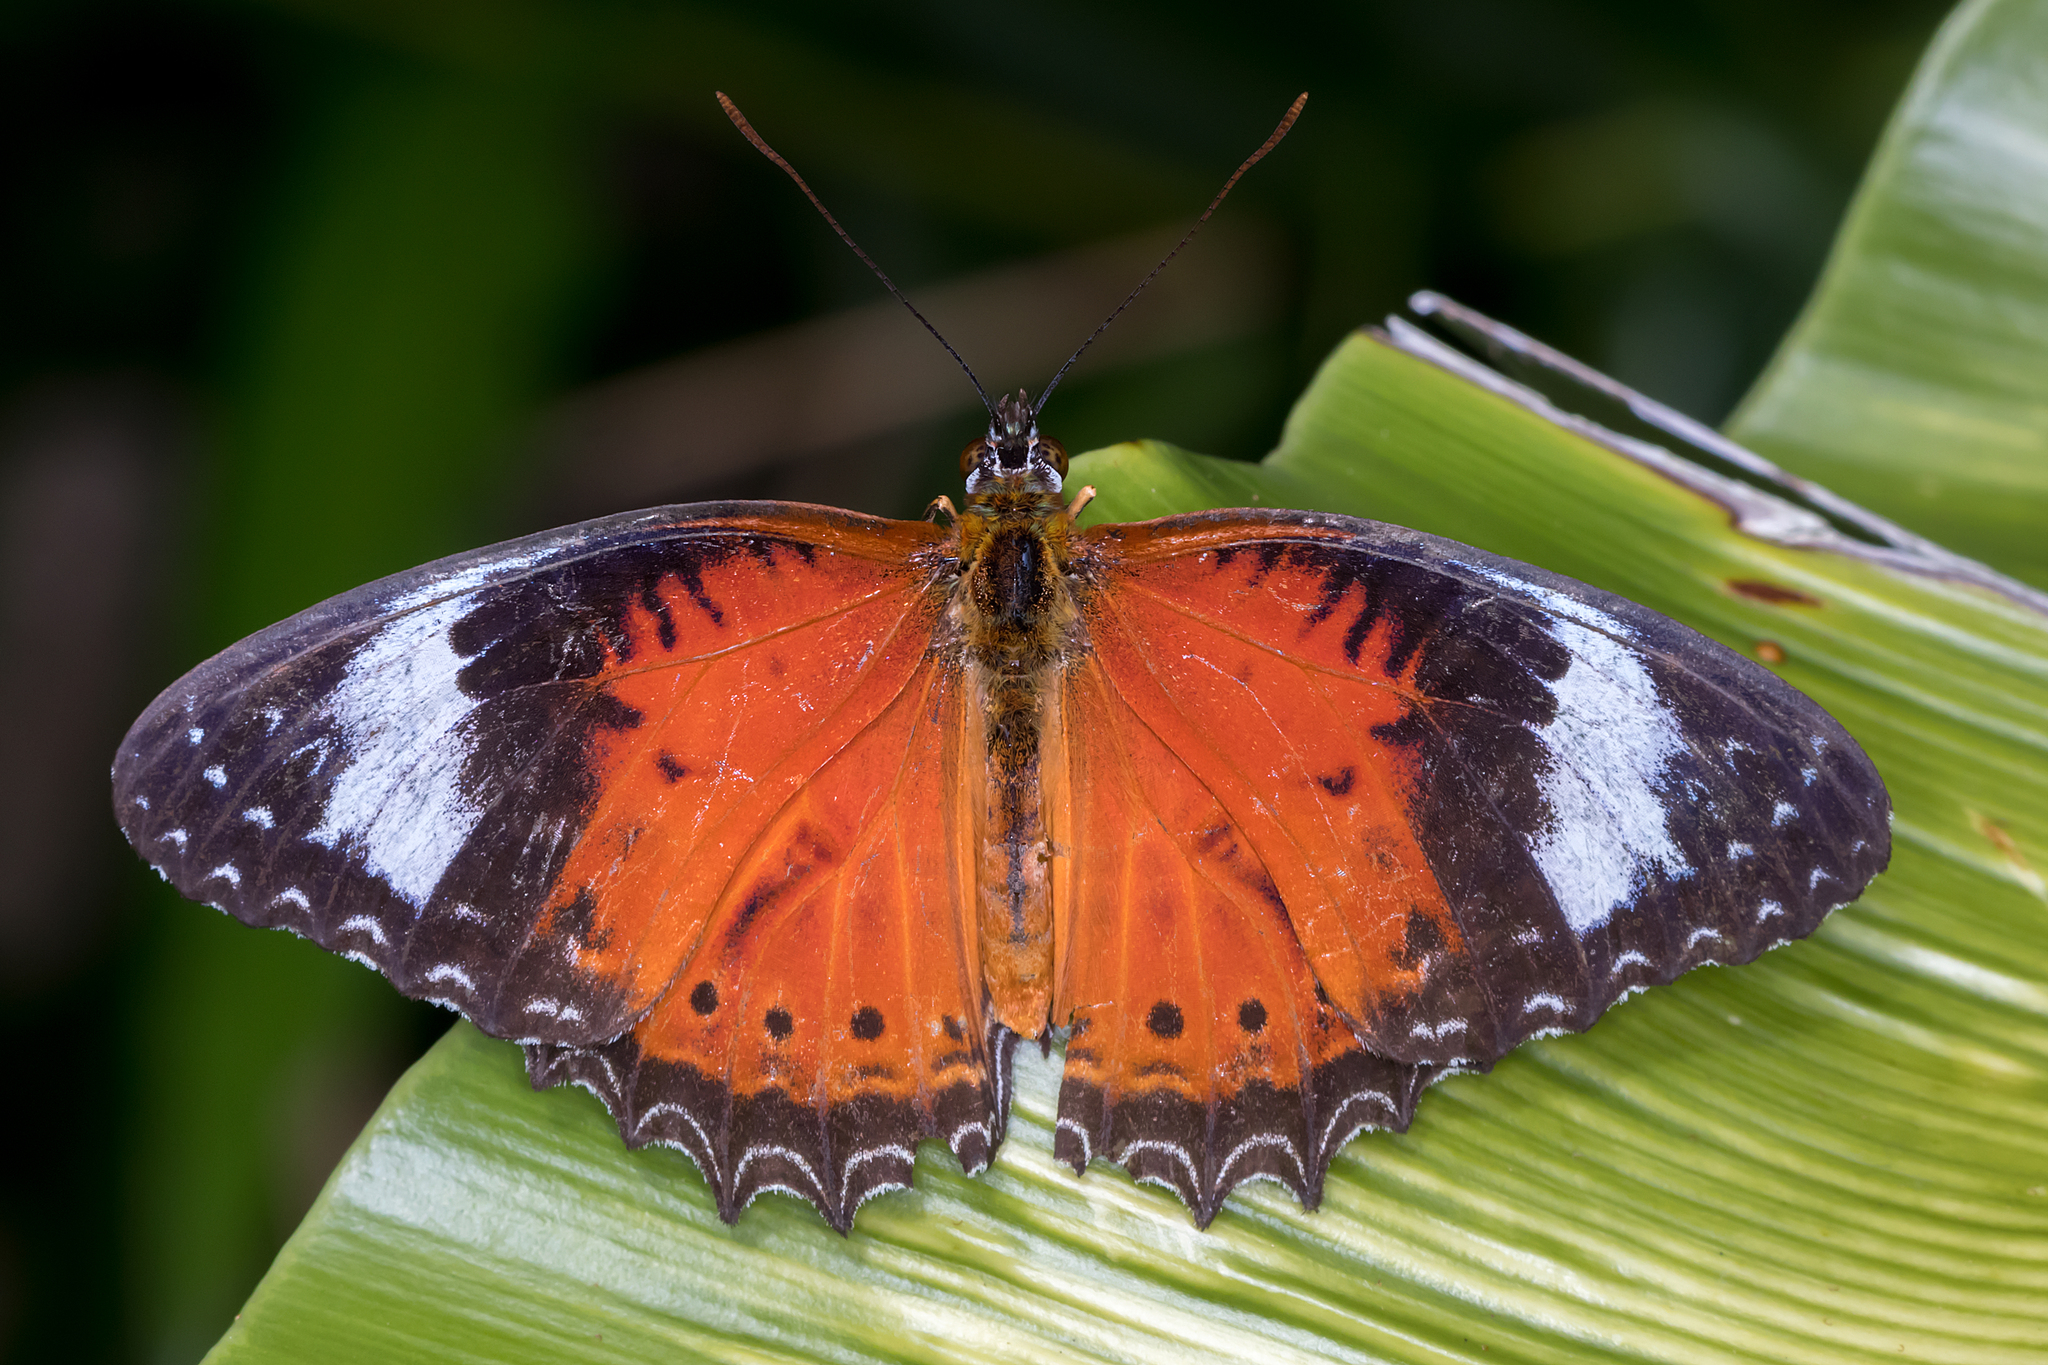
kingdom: Animalia
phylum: Arthropoda
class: Insecta
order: Lepidoptera
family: Nymphalidae
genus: Cethosia
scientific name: Cethosia penthesilea
